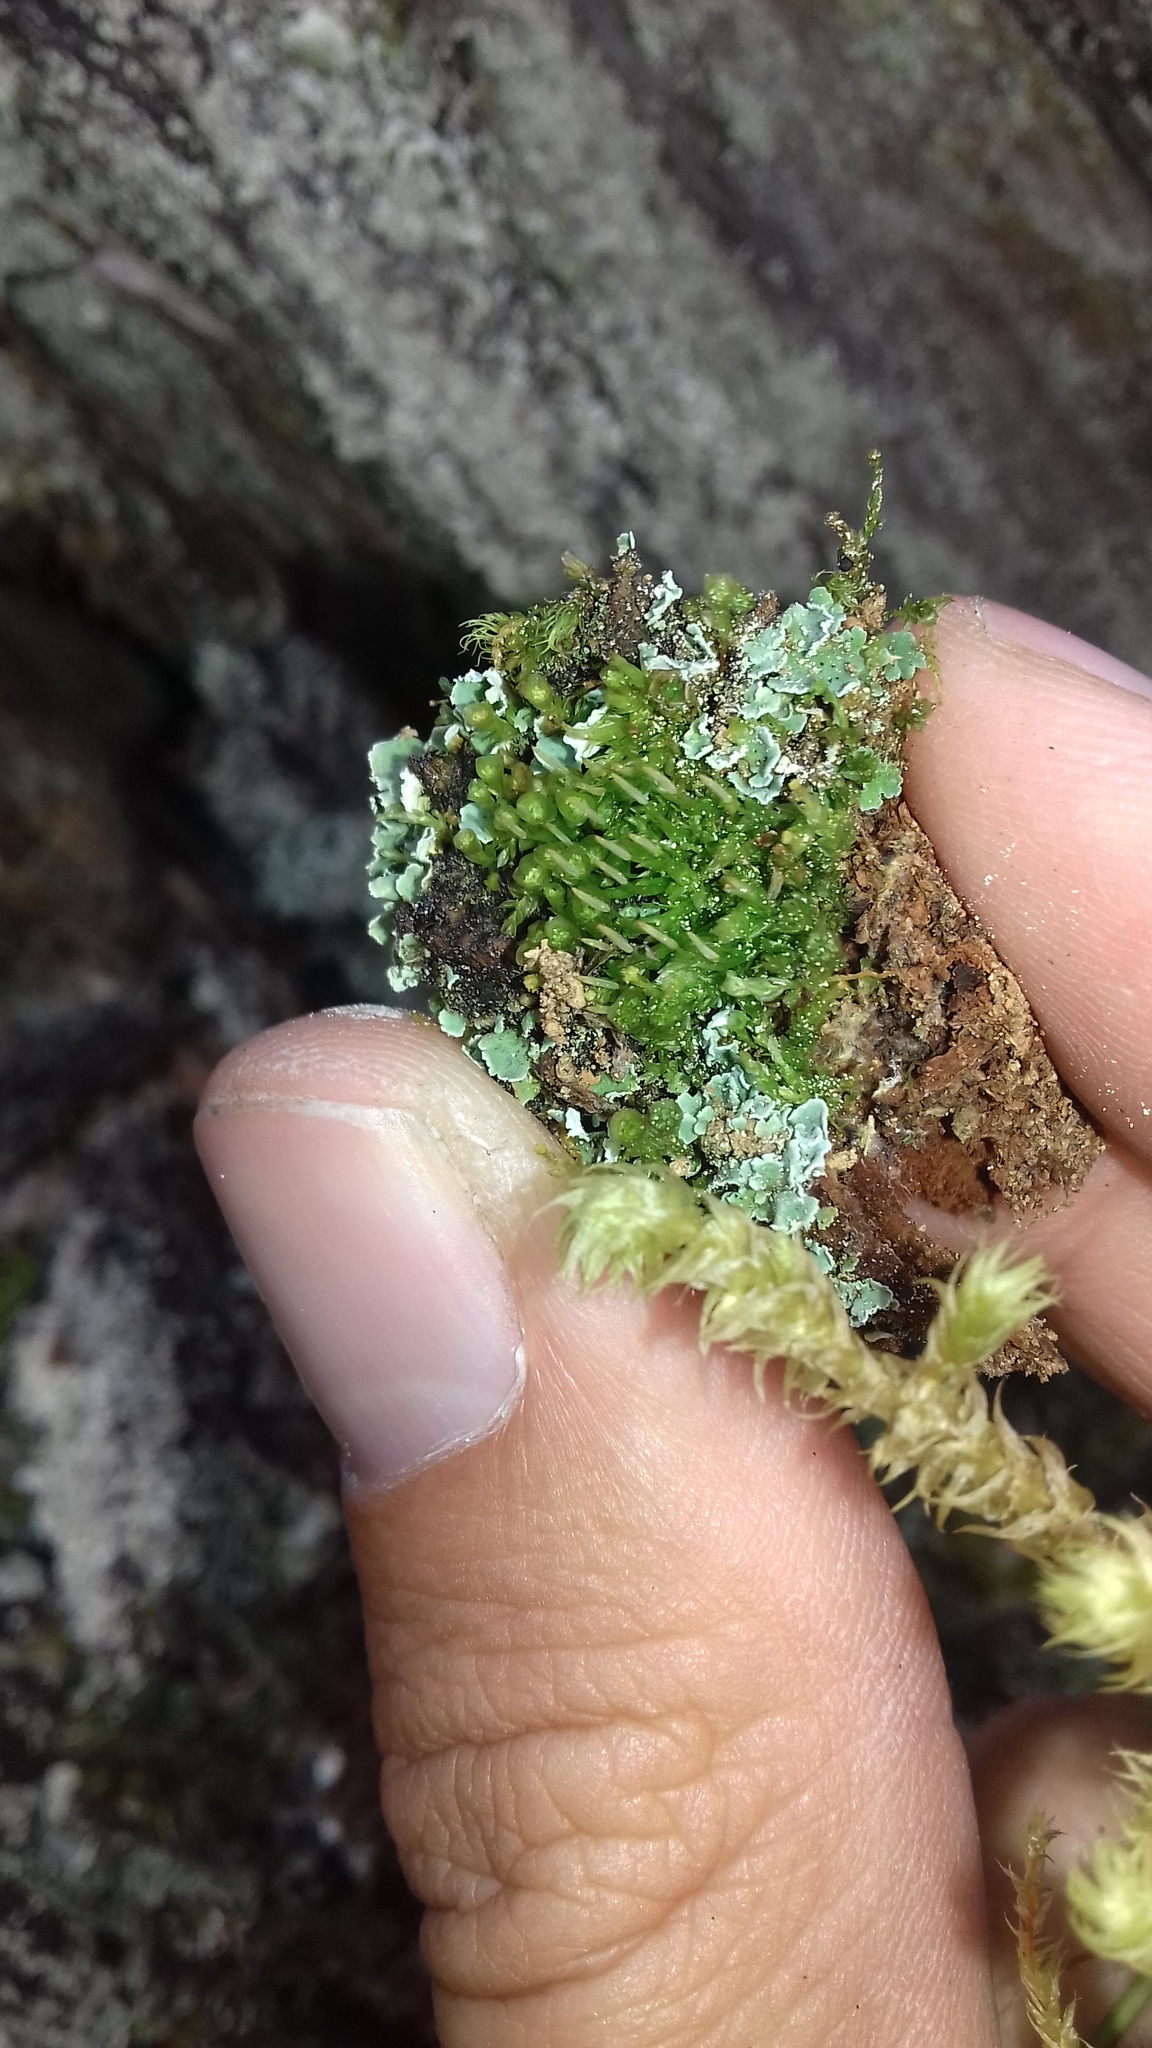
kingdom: Plantae
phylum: Bryophyta
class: Polytrichopsida
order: Tetraphidales
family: Tetraphidaceae
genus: Tetraphis
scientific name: Tetraphis pellucida
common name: Common four-toothed moss
